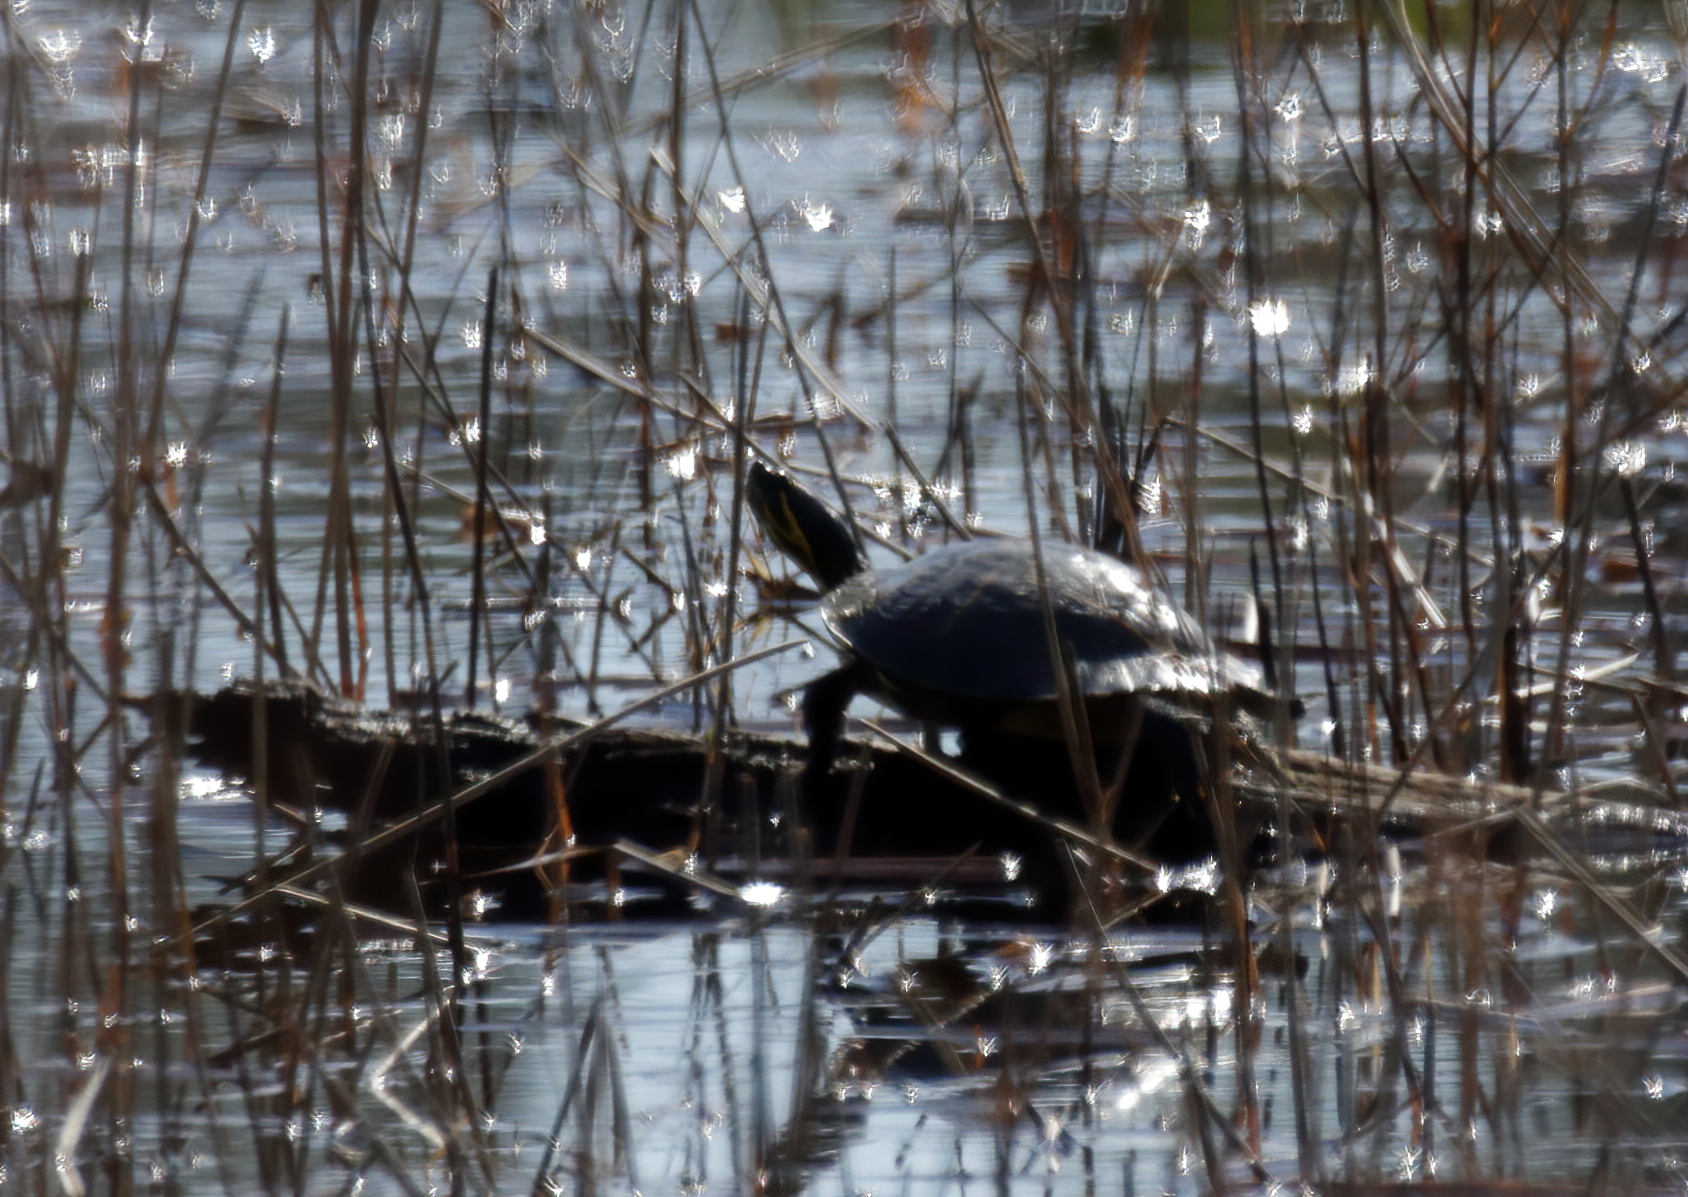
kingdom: Animalia
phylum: Chordata
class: Testudines
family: Emydidae
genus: Trachemys
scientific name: Trachemys scripta
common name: Slider
